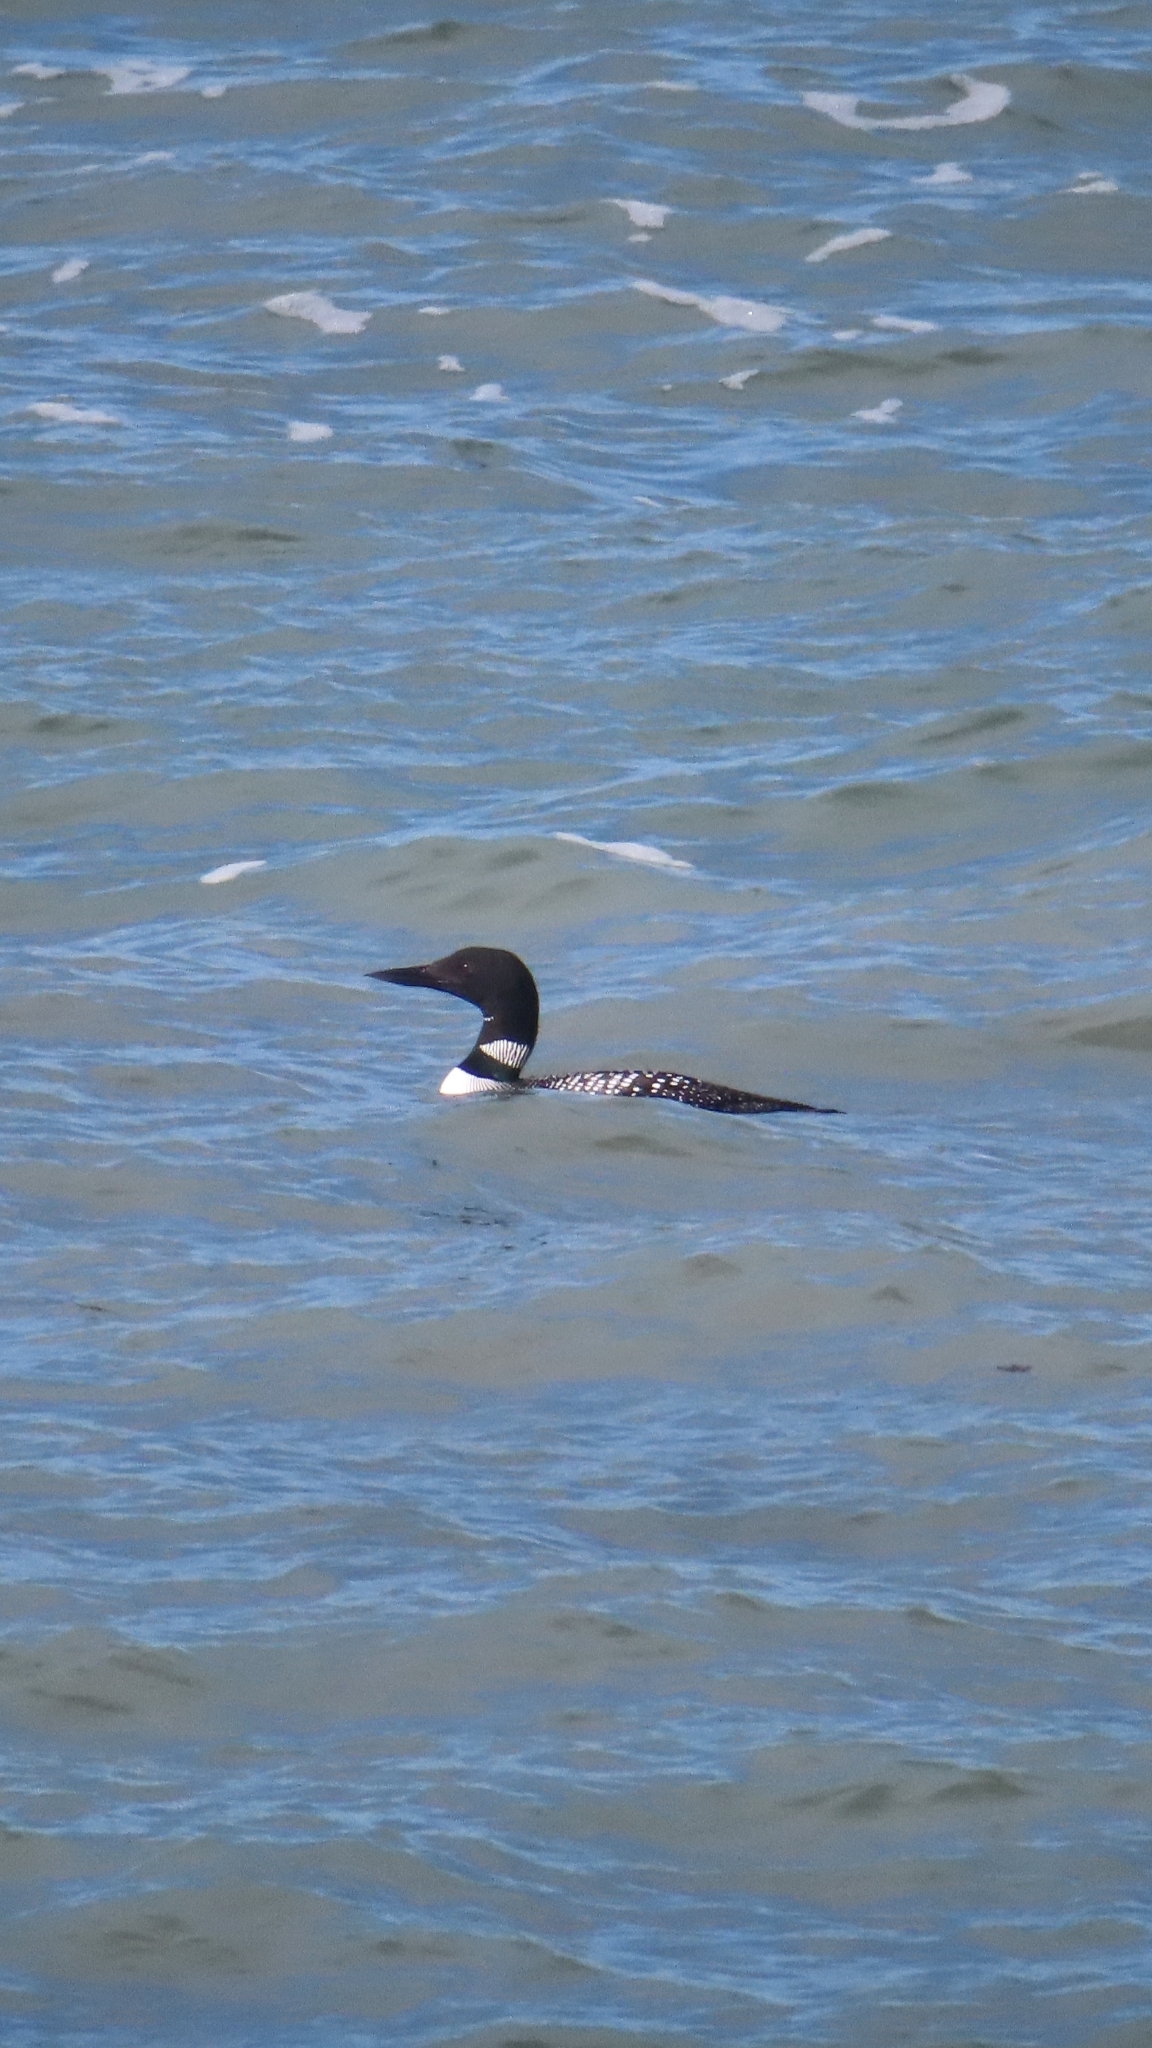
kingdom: Animalia
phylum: Chordata
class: Aves
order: Gaviiformes
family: Gaviidae
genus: Gavia
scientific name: Gavia immer
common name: Common loon
